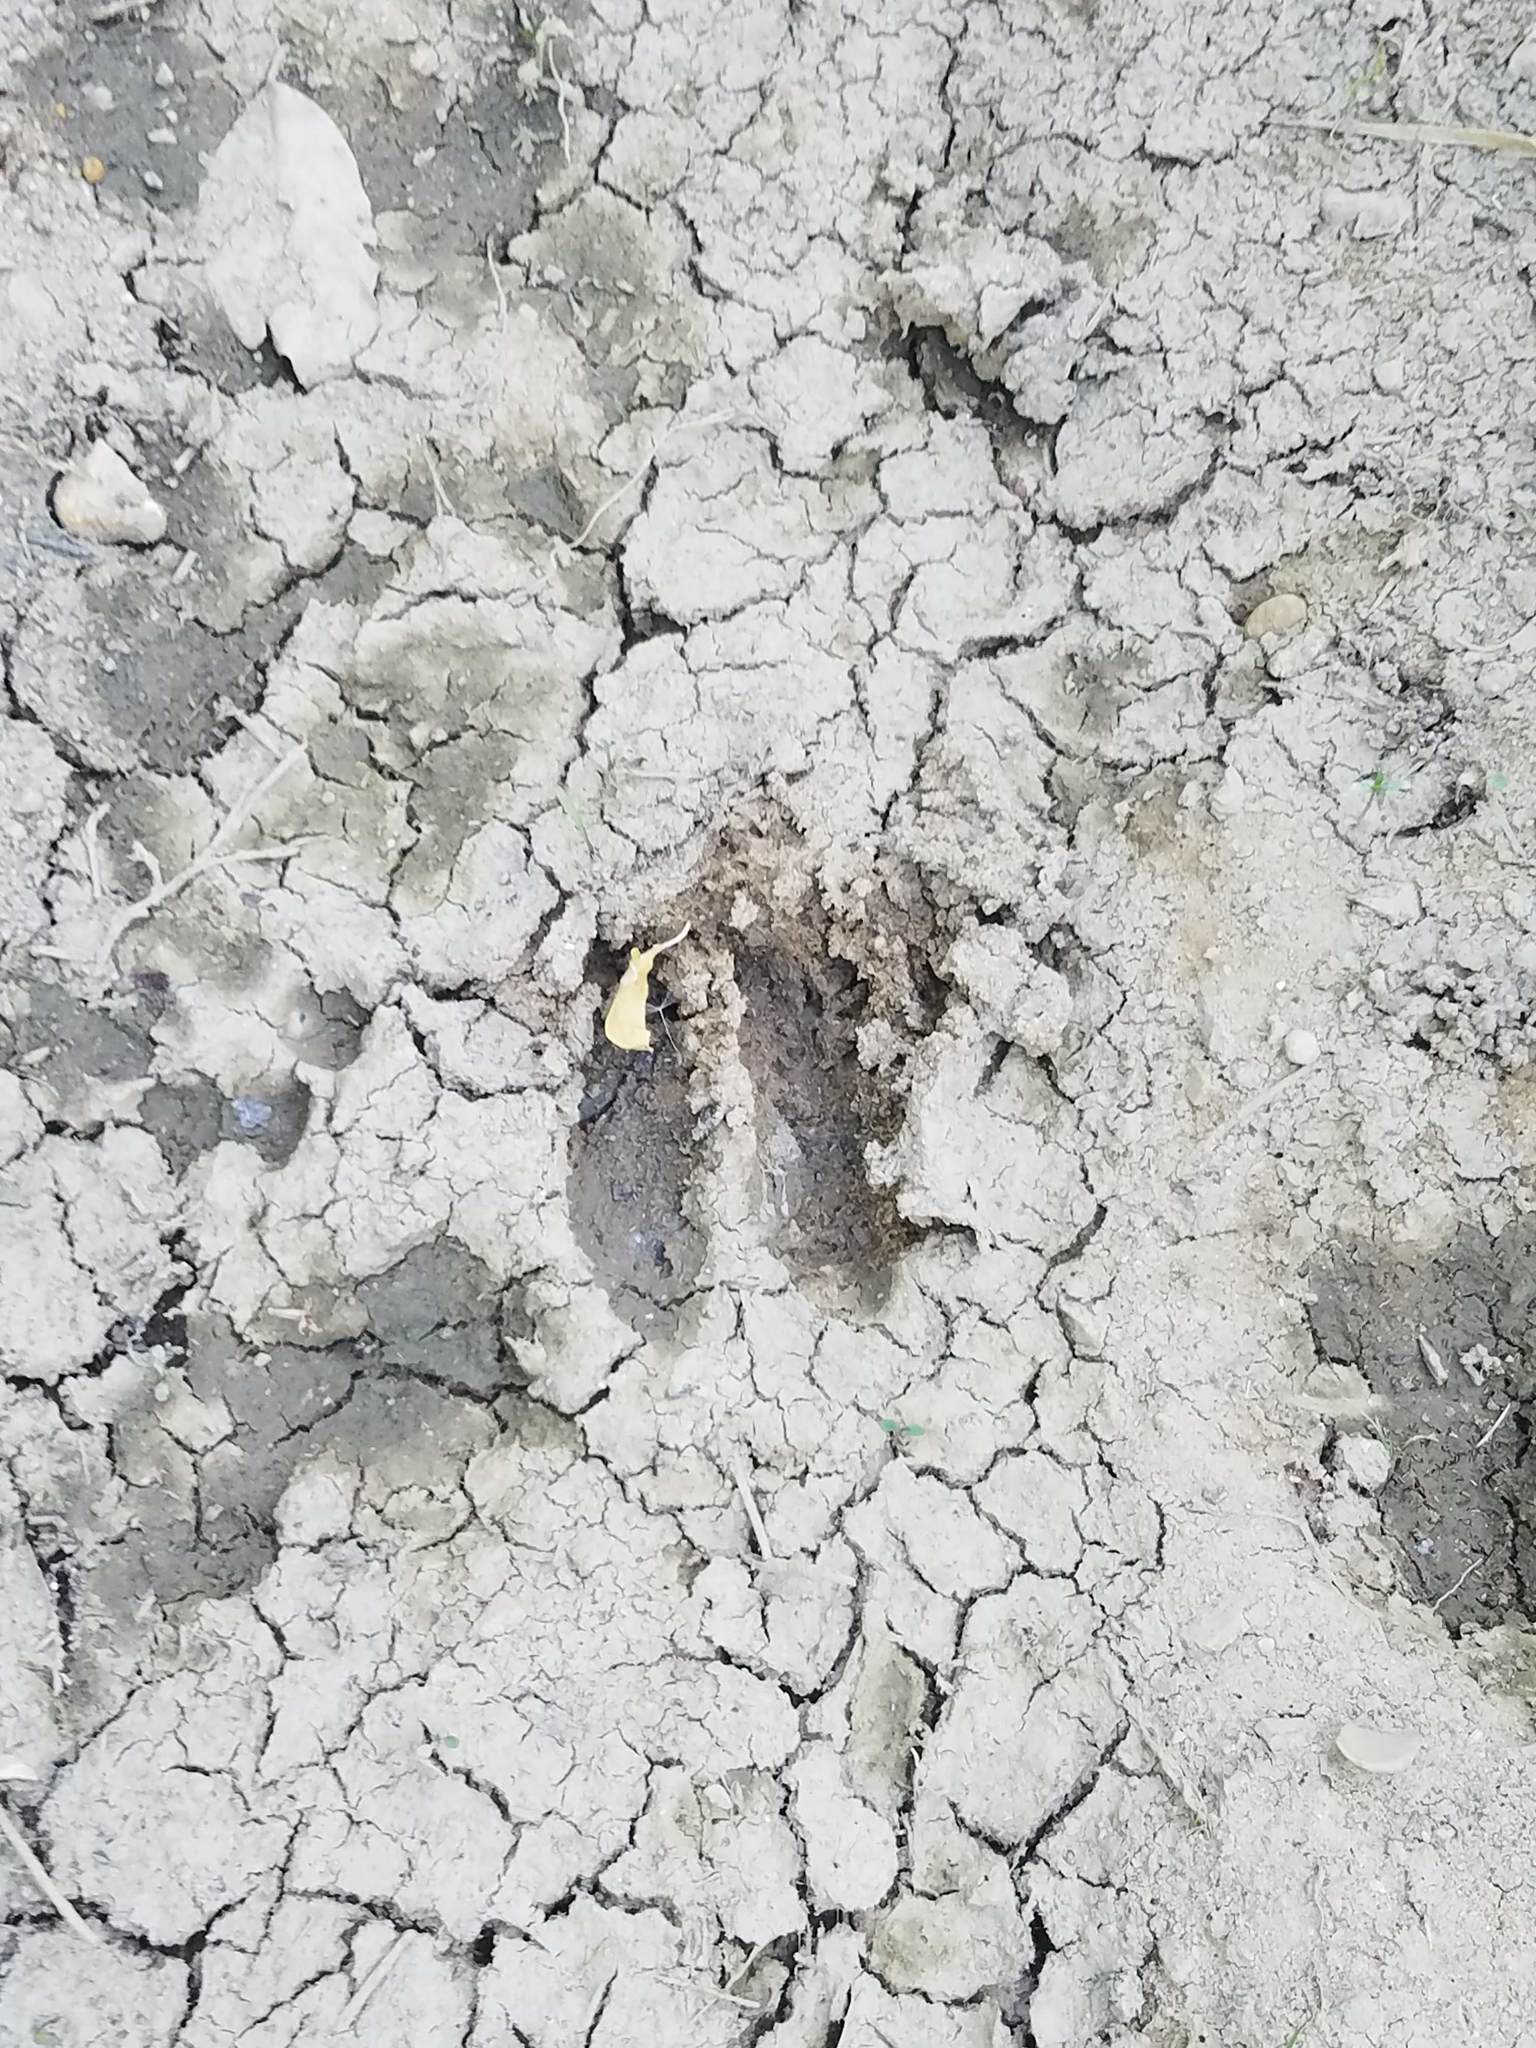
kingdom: Animalia
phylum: Chordata
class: Mammalia
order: Artiodactyla
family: Cervidae
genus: Odocoileus
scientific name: Odocoileus virginianus
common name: White-tailed deer
